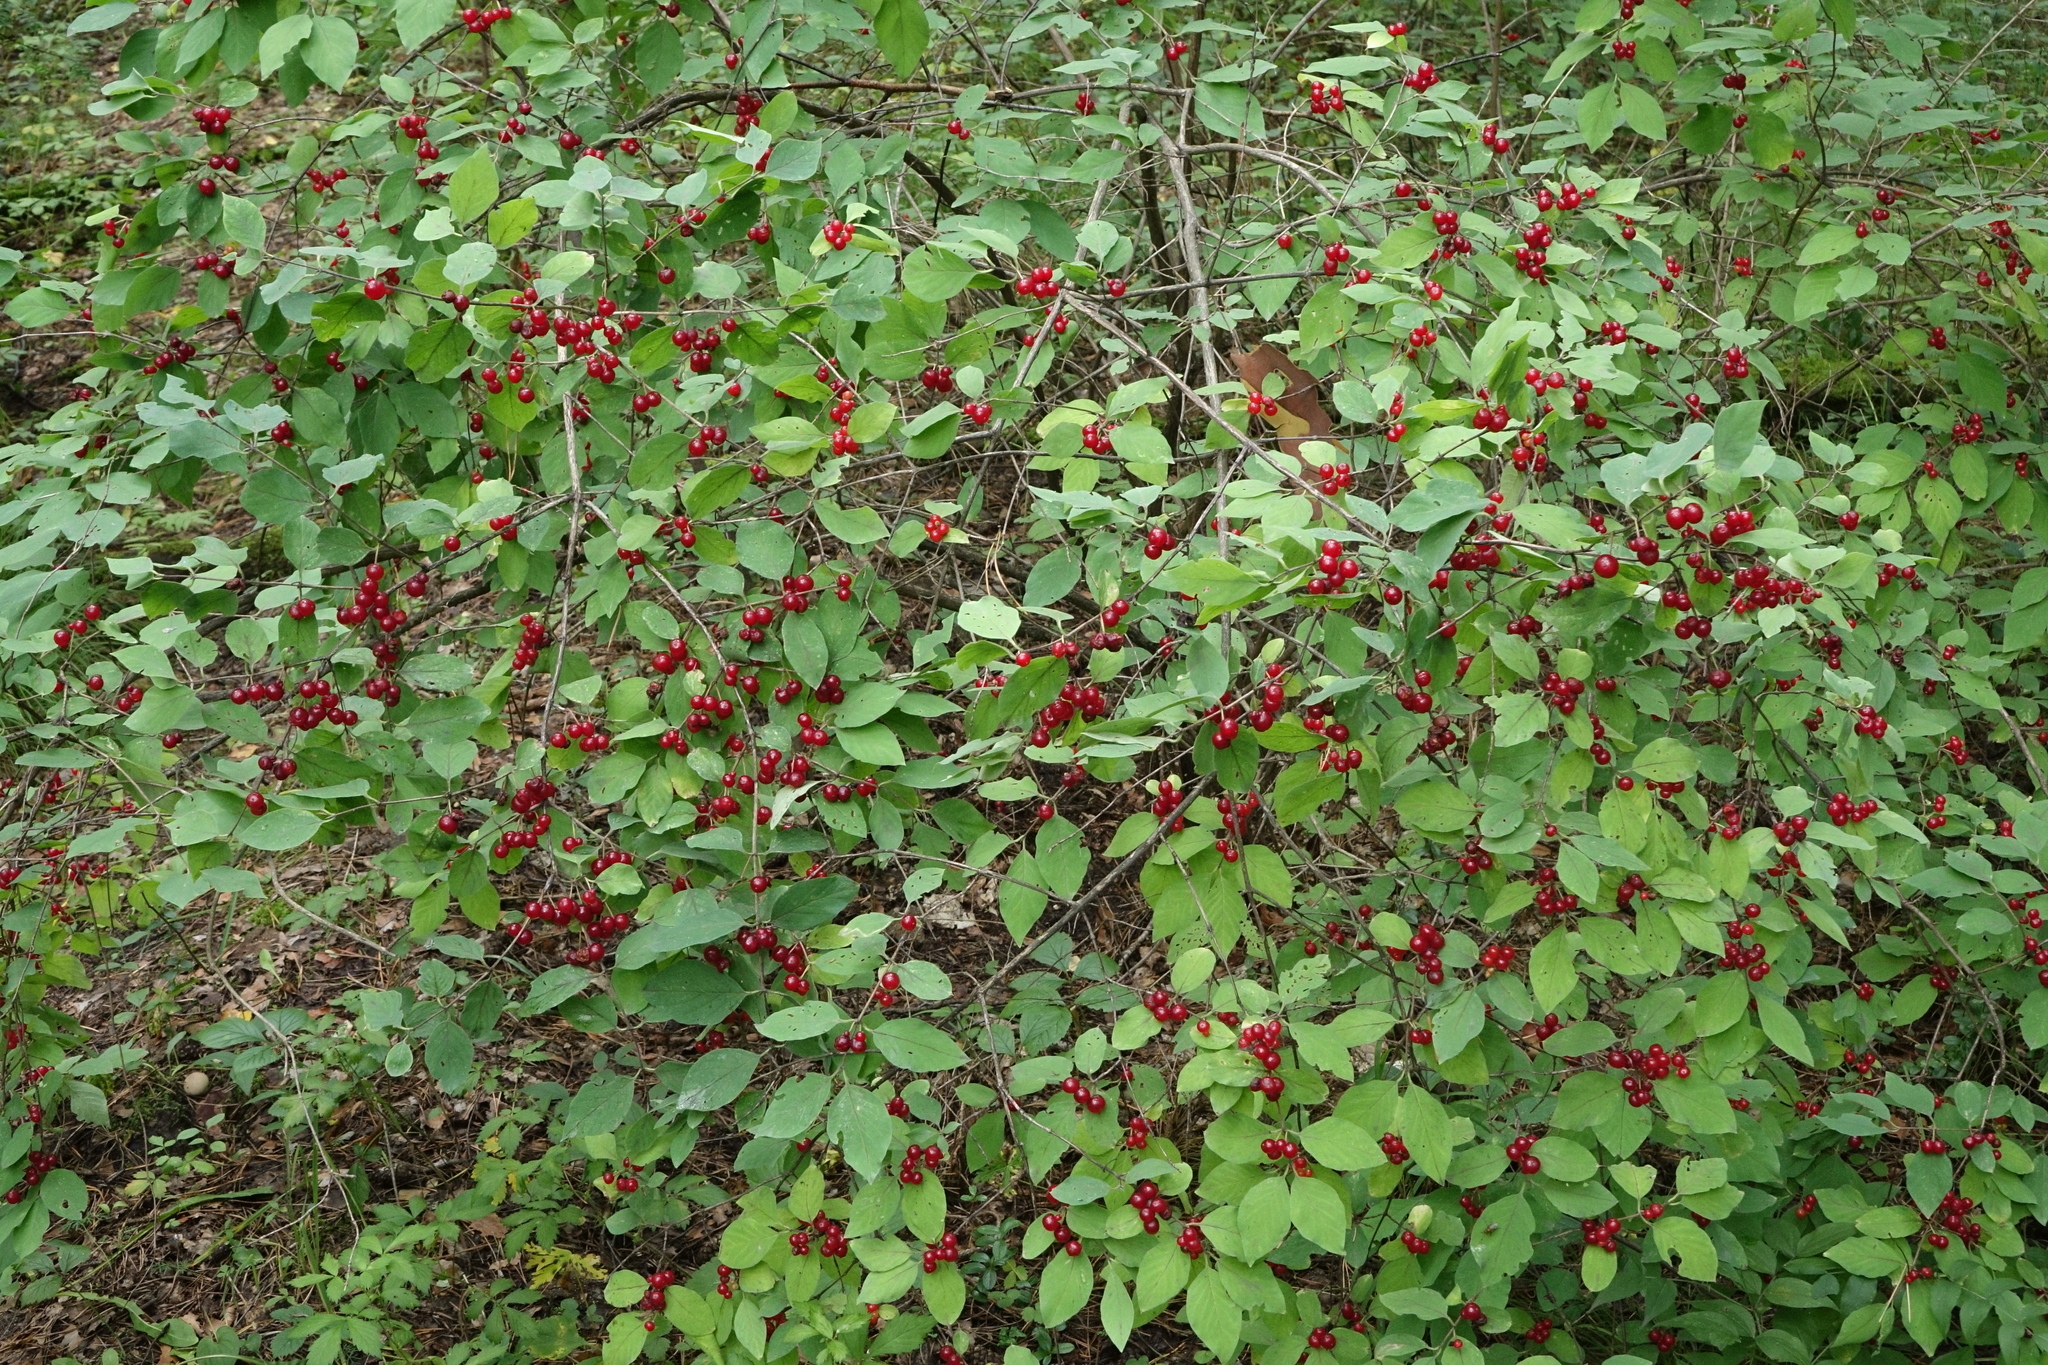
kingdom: Plantae
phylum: Tracheophyta
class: Magnoliopsida
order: Dipsacales
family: Caprifoliaceae
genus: Lonicera
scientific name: Lonicera xylosteum
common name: Fly honeysuckle
